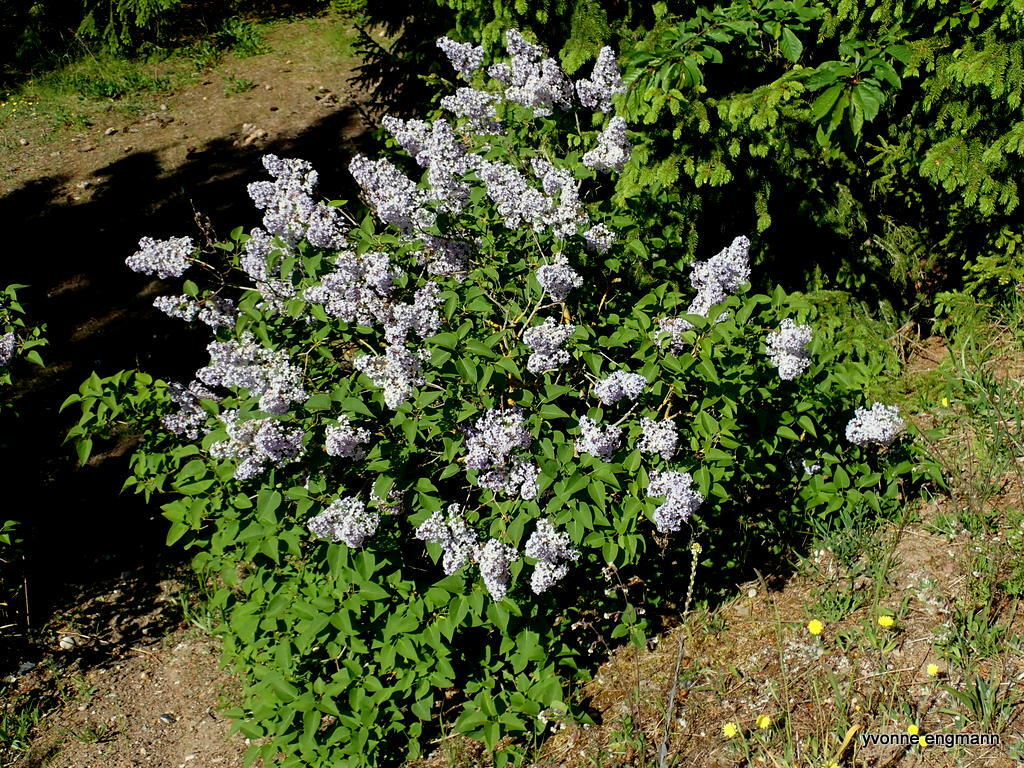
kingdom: Plantae
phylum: Tracheophyta
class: Magnoliopsida
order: Lamiales
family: Oleaceae
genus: Syringa
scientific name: Syringa vulgaris
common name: Common lilac
